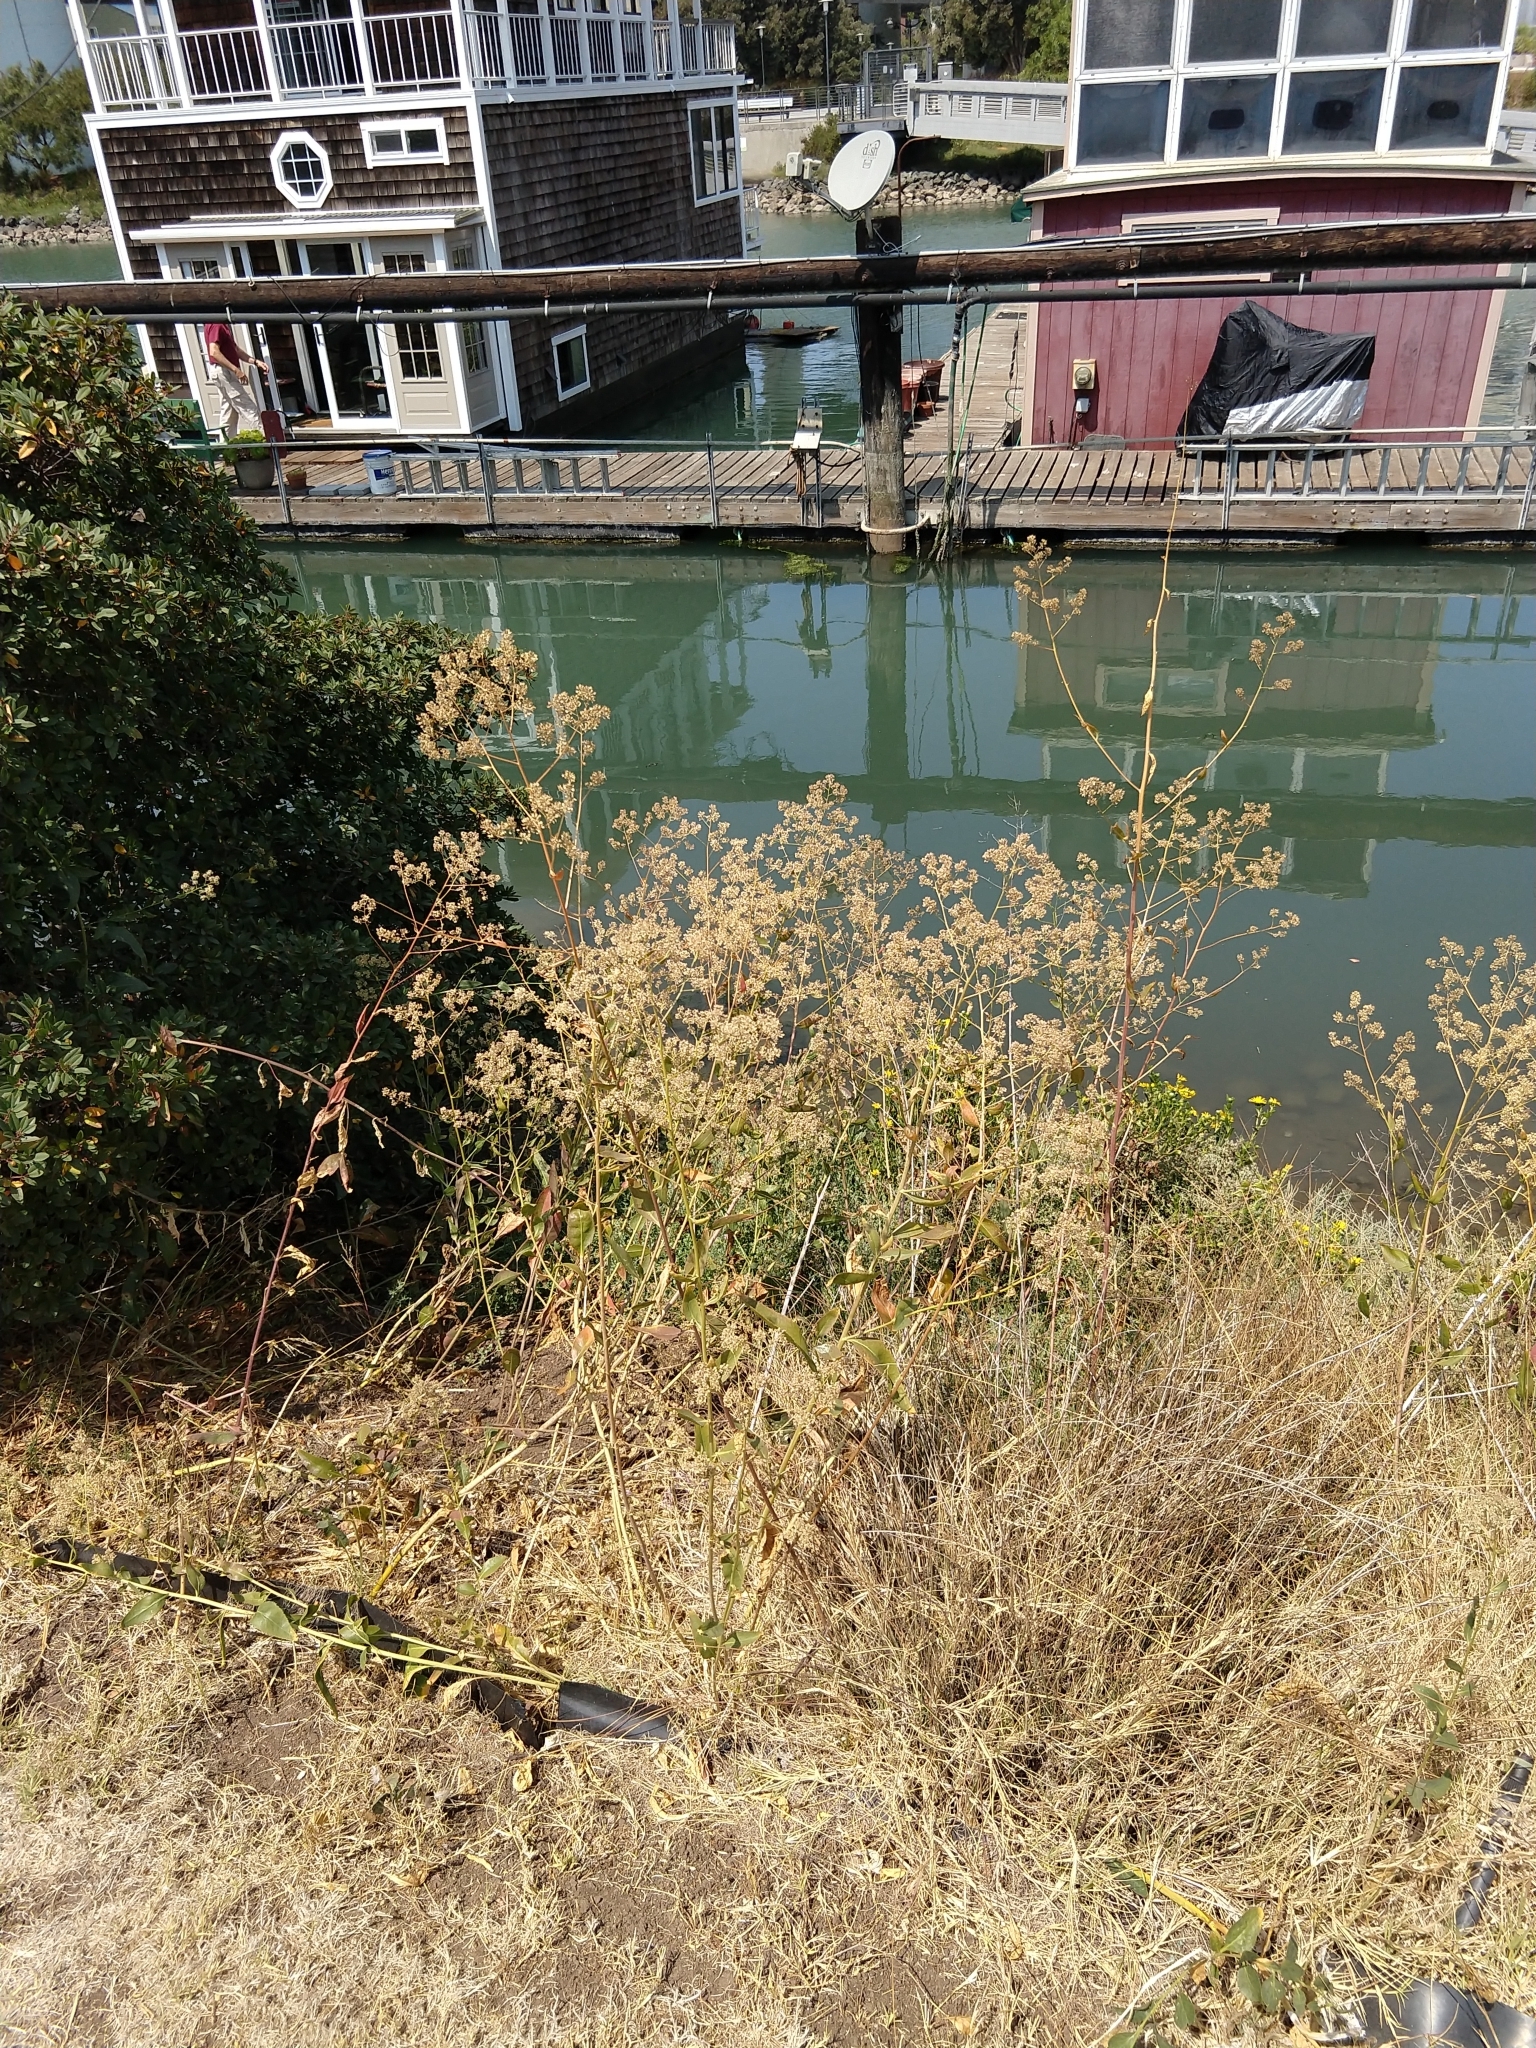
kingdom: Plantae
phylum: Tracheophyta
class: Magnoliopsida
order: Brassicales
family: Brassicaceae
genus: Lepidium
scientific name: Lepidium latifolium
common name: Dittander
